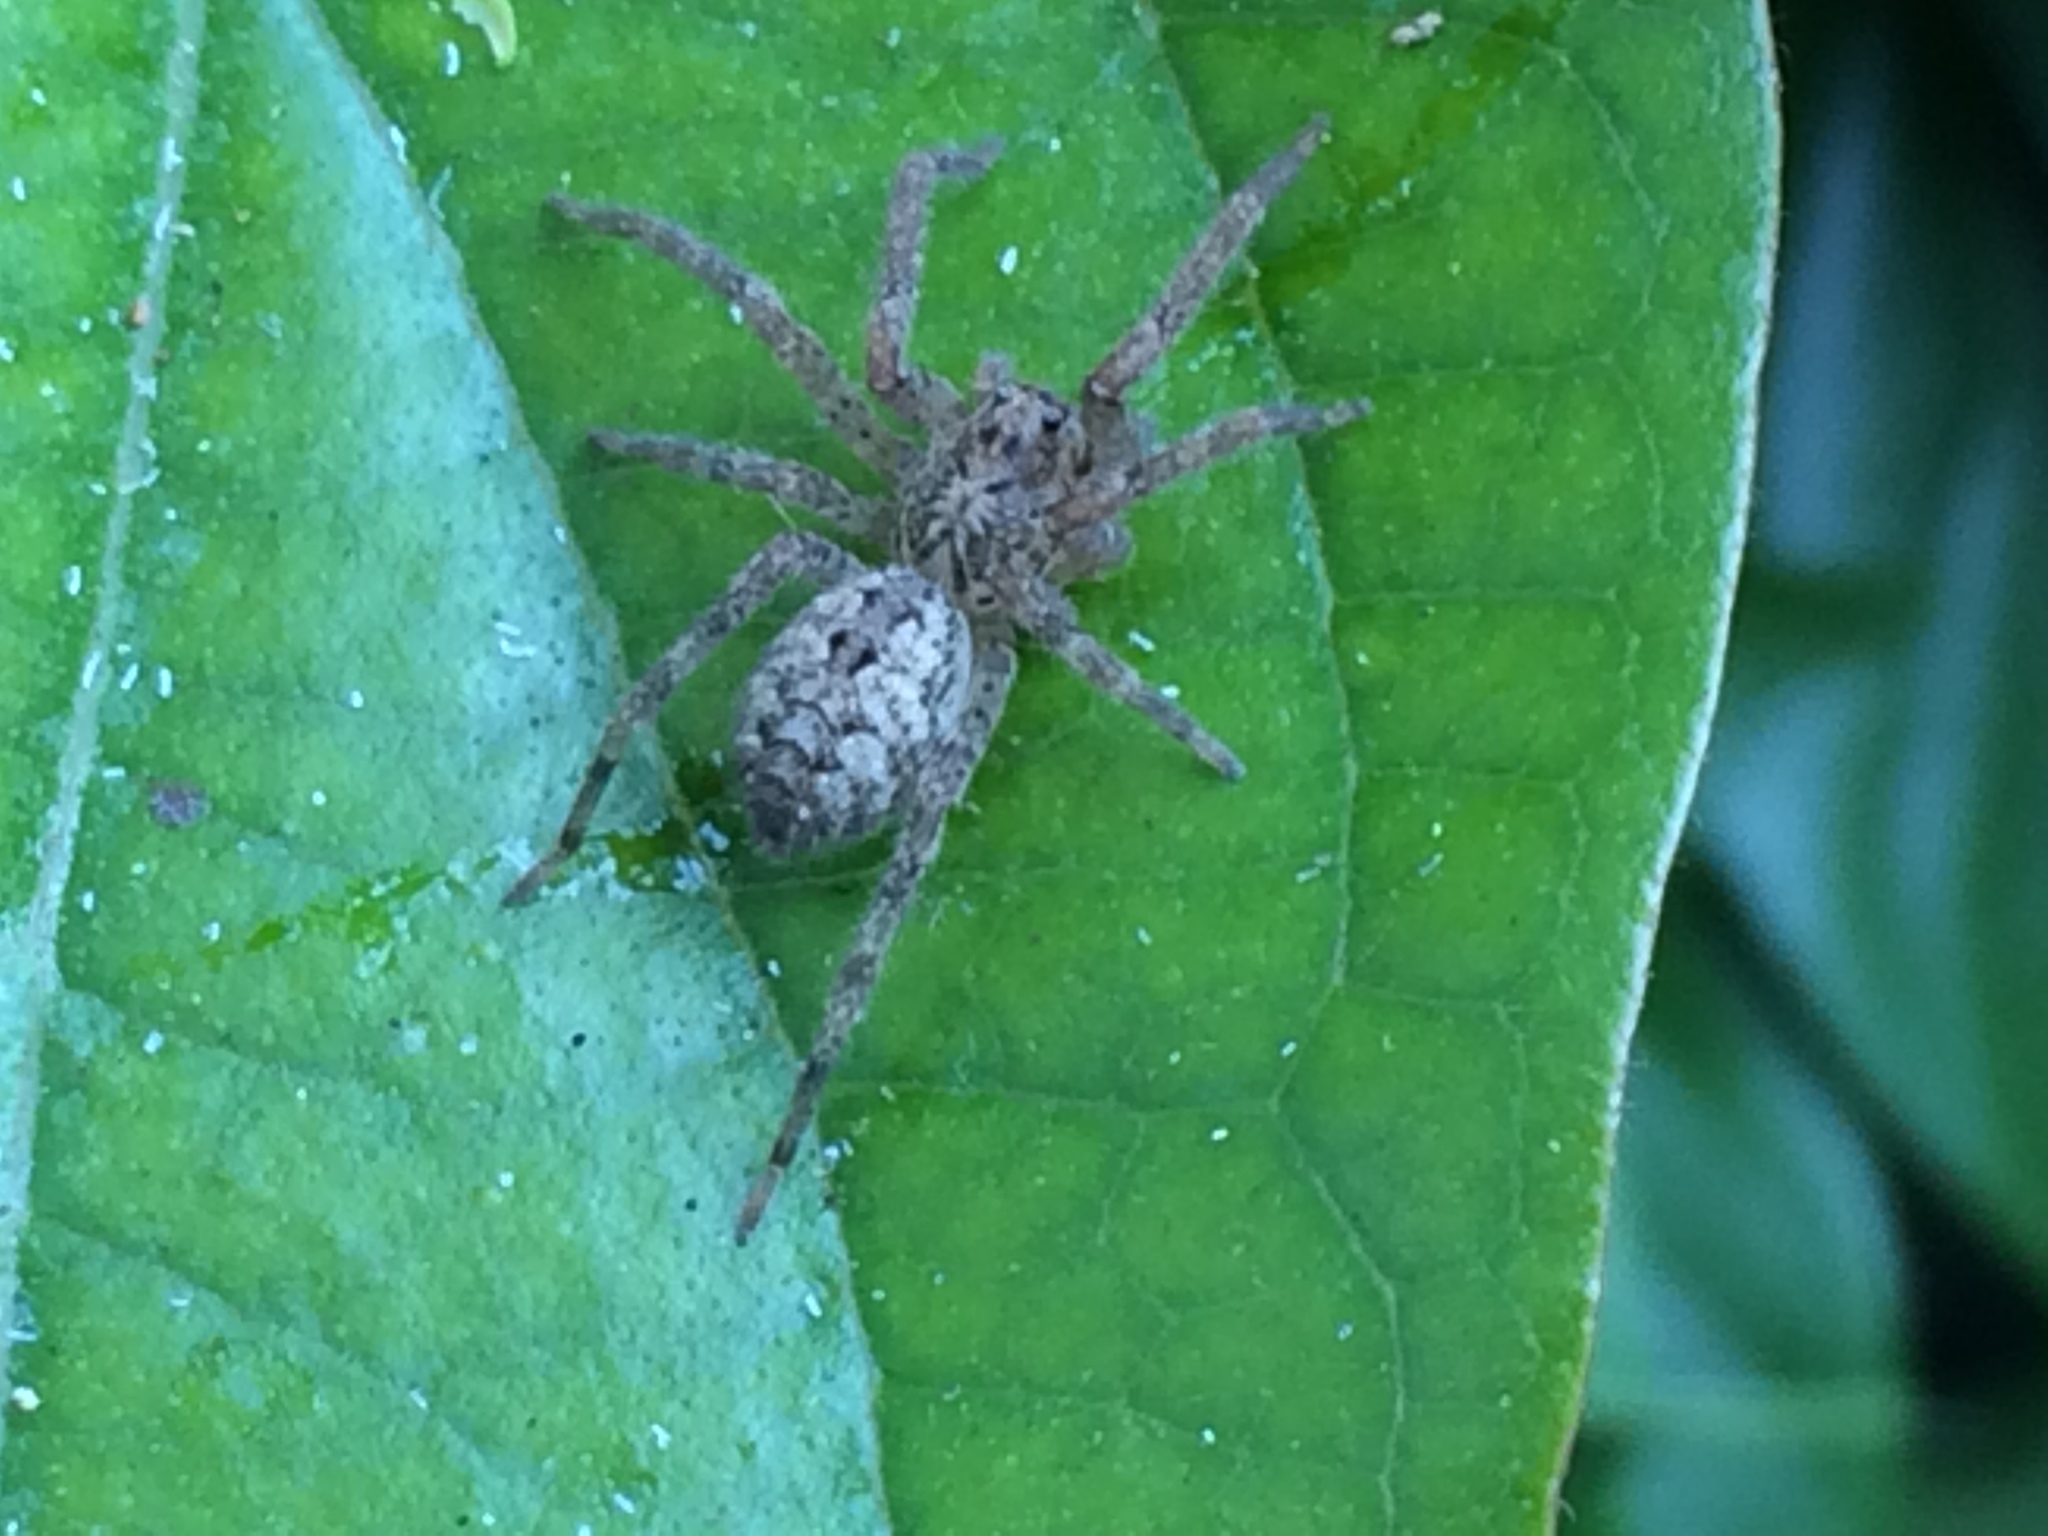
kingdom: Animalia
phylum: Arthropoda
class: Arachnida
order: Araneae
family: Zoropsidae
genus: Zoropsis
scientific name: Zoropsis spinimana
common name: Zoropsid spider
